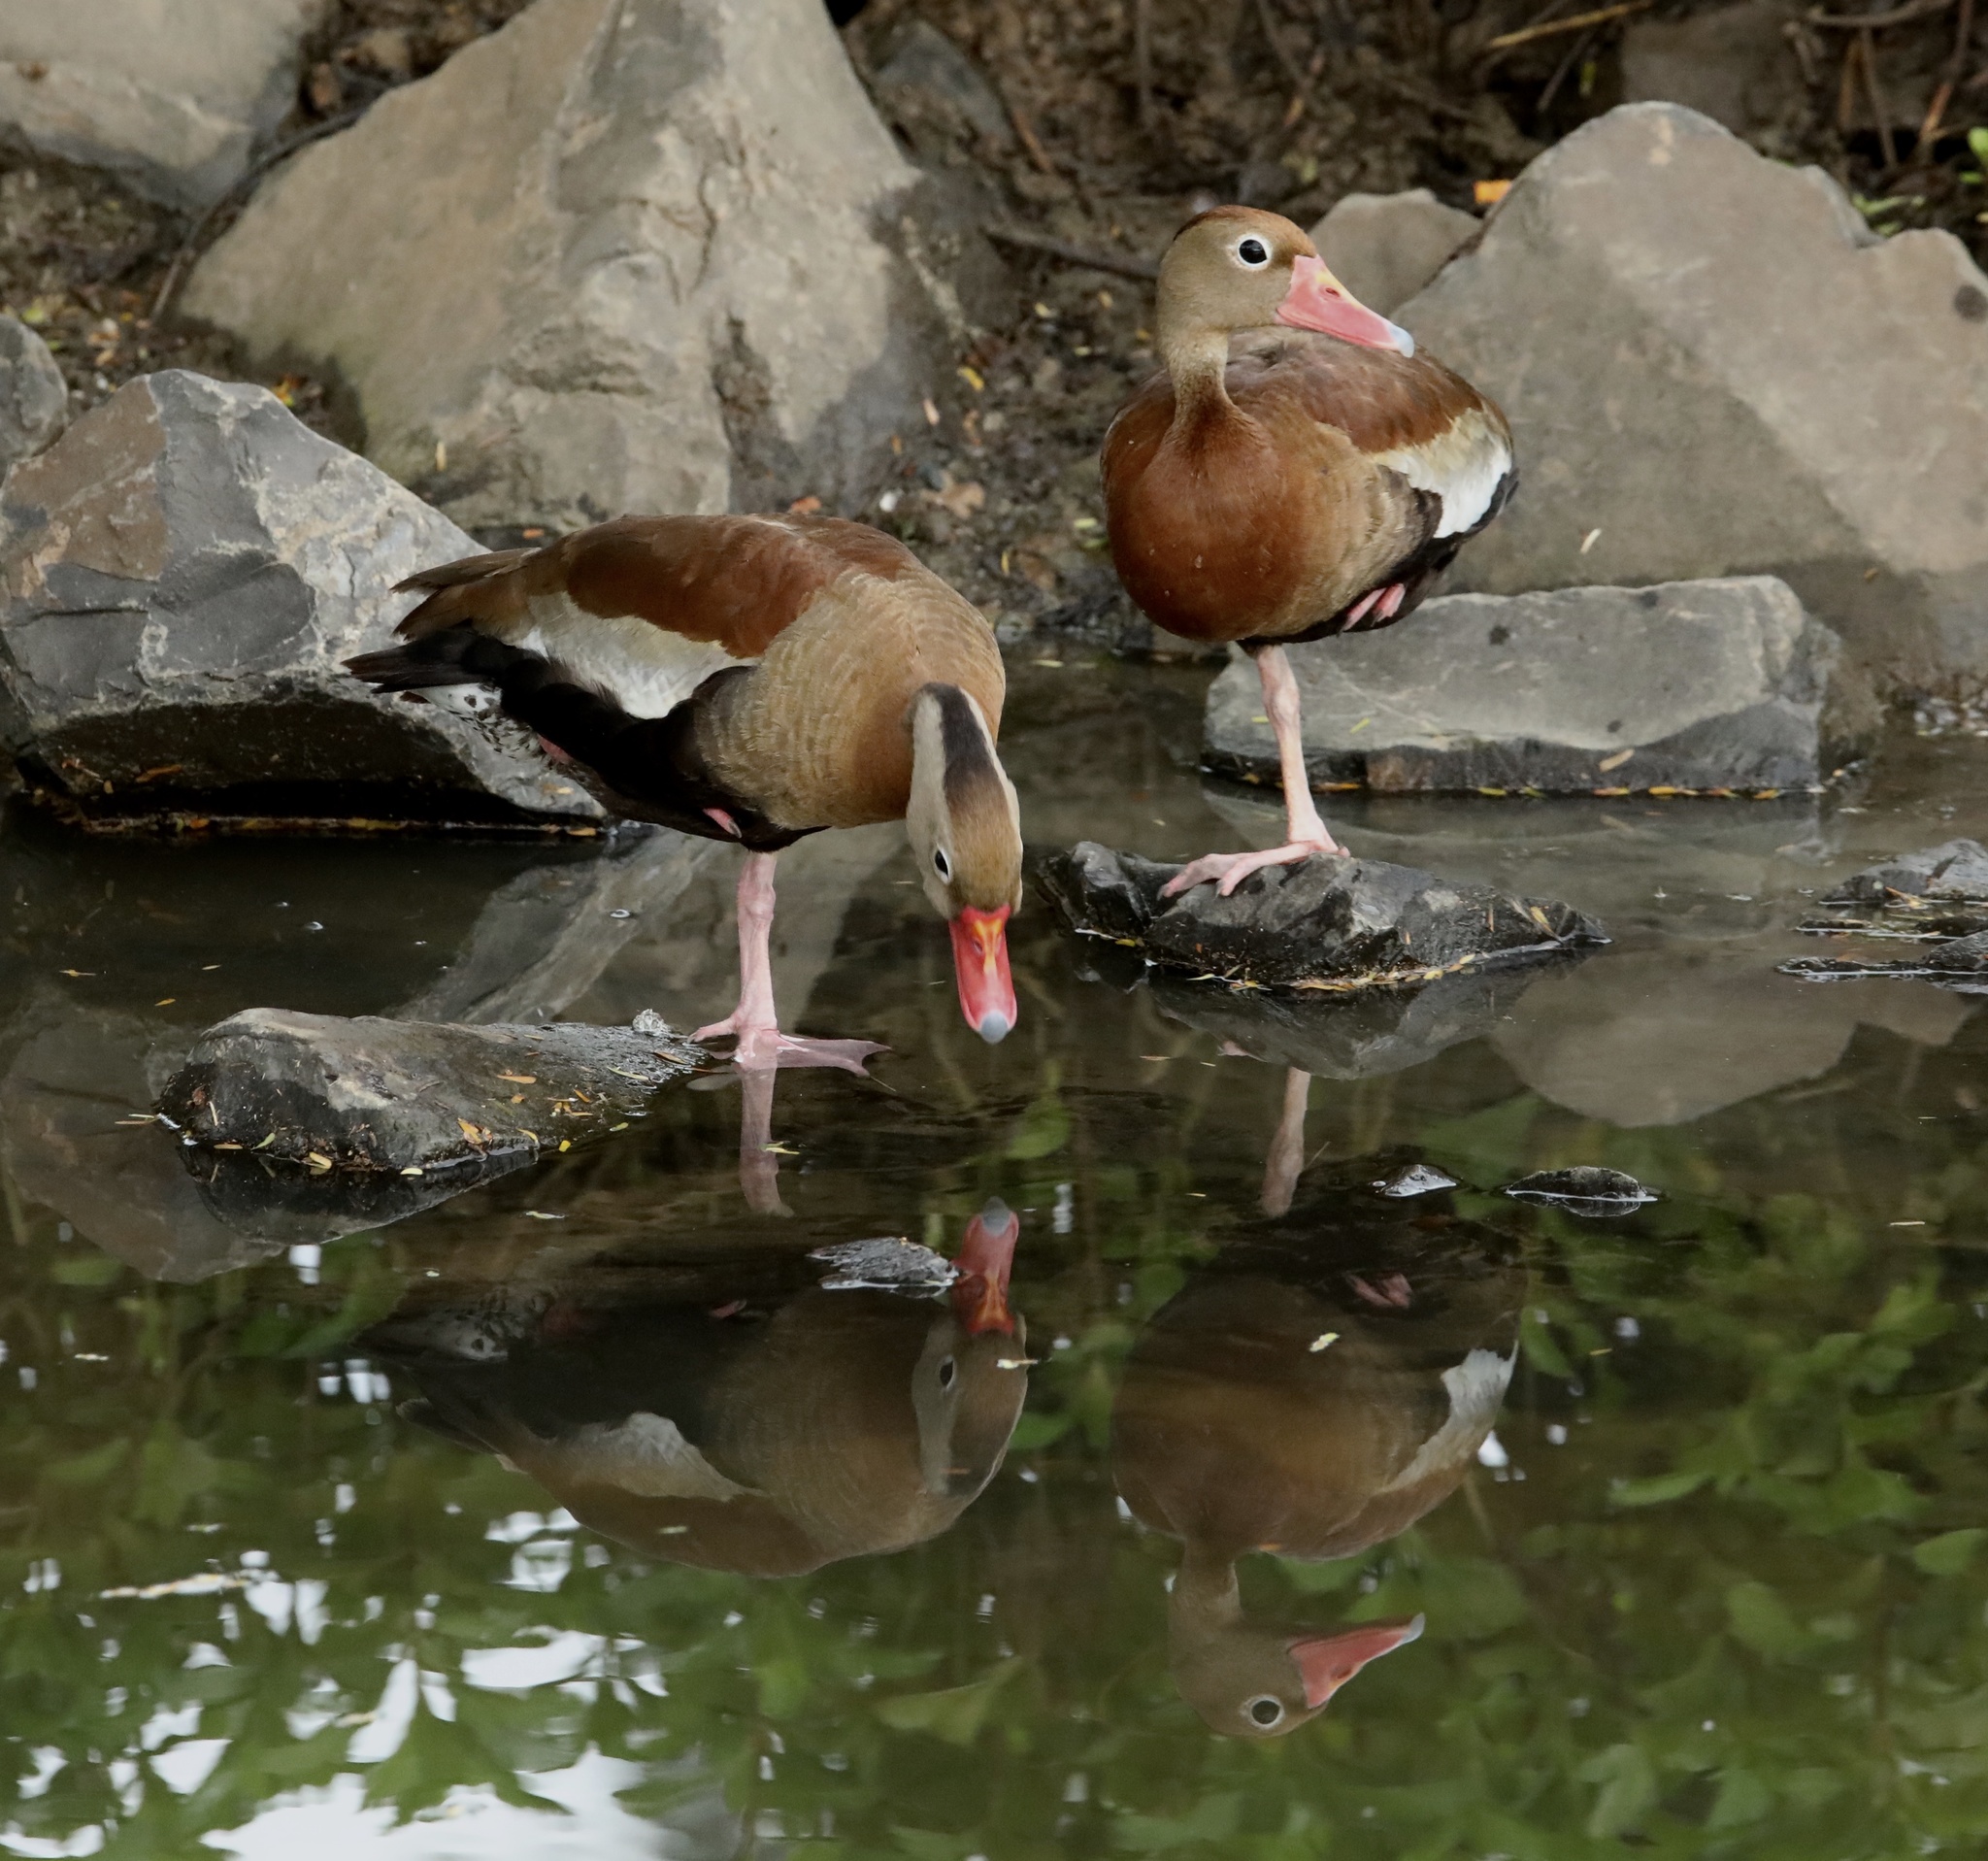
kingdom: Animalia
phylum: Chordata
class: Aves
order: Anseriformes
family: Anatidae
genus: Dendrocygna
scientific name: Dendrocygna autumnalis
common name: Black-bellied whistling duck
